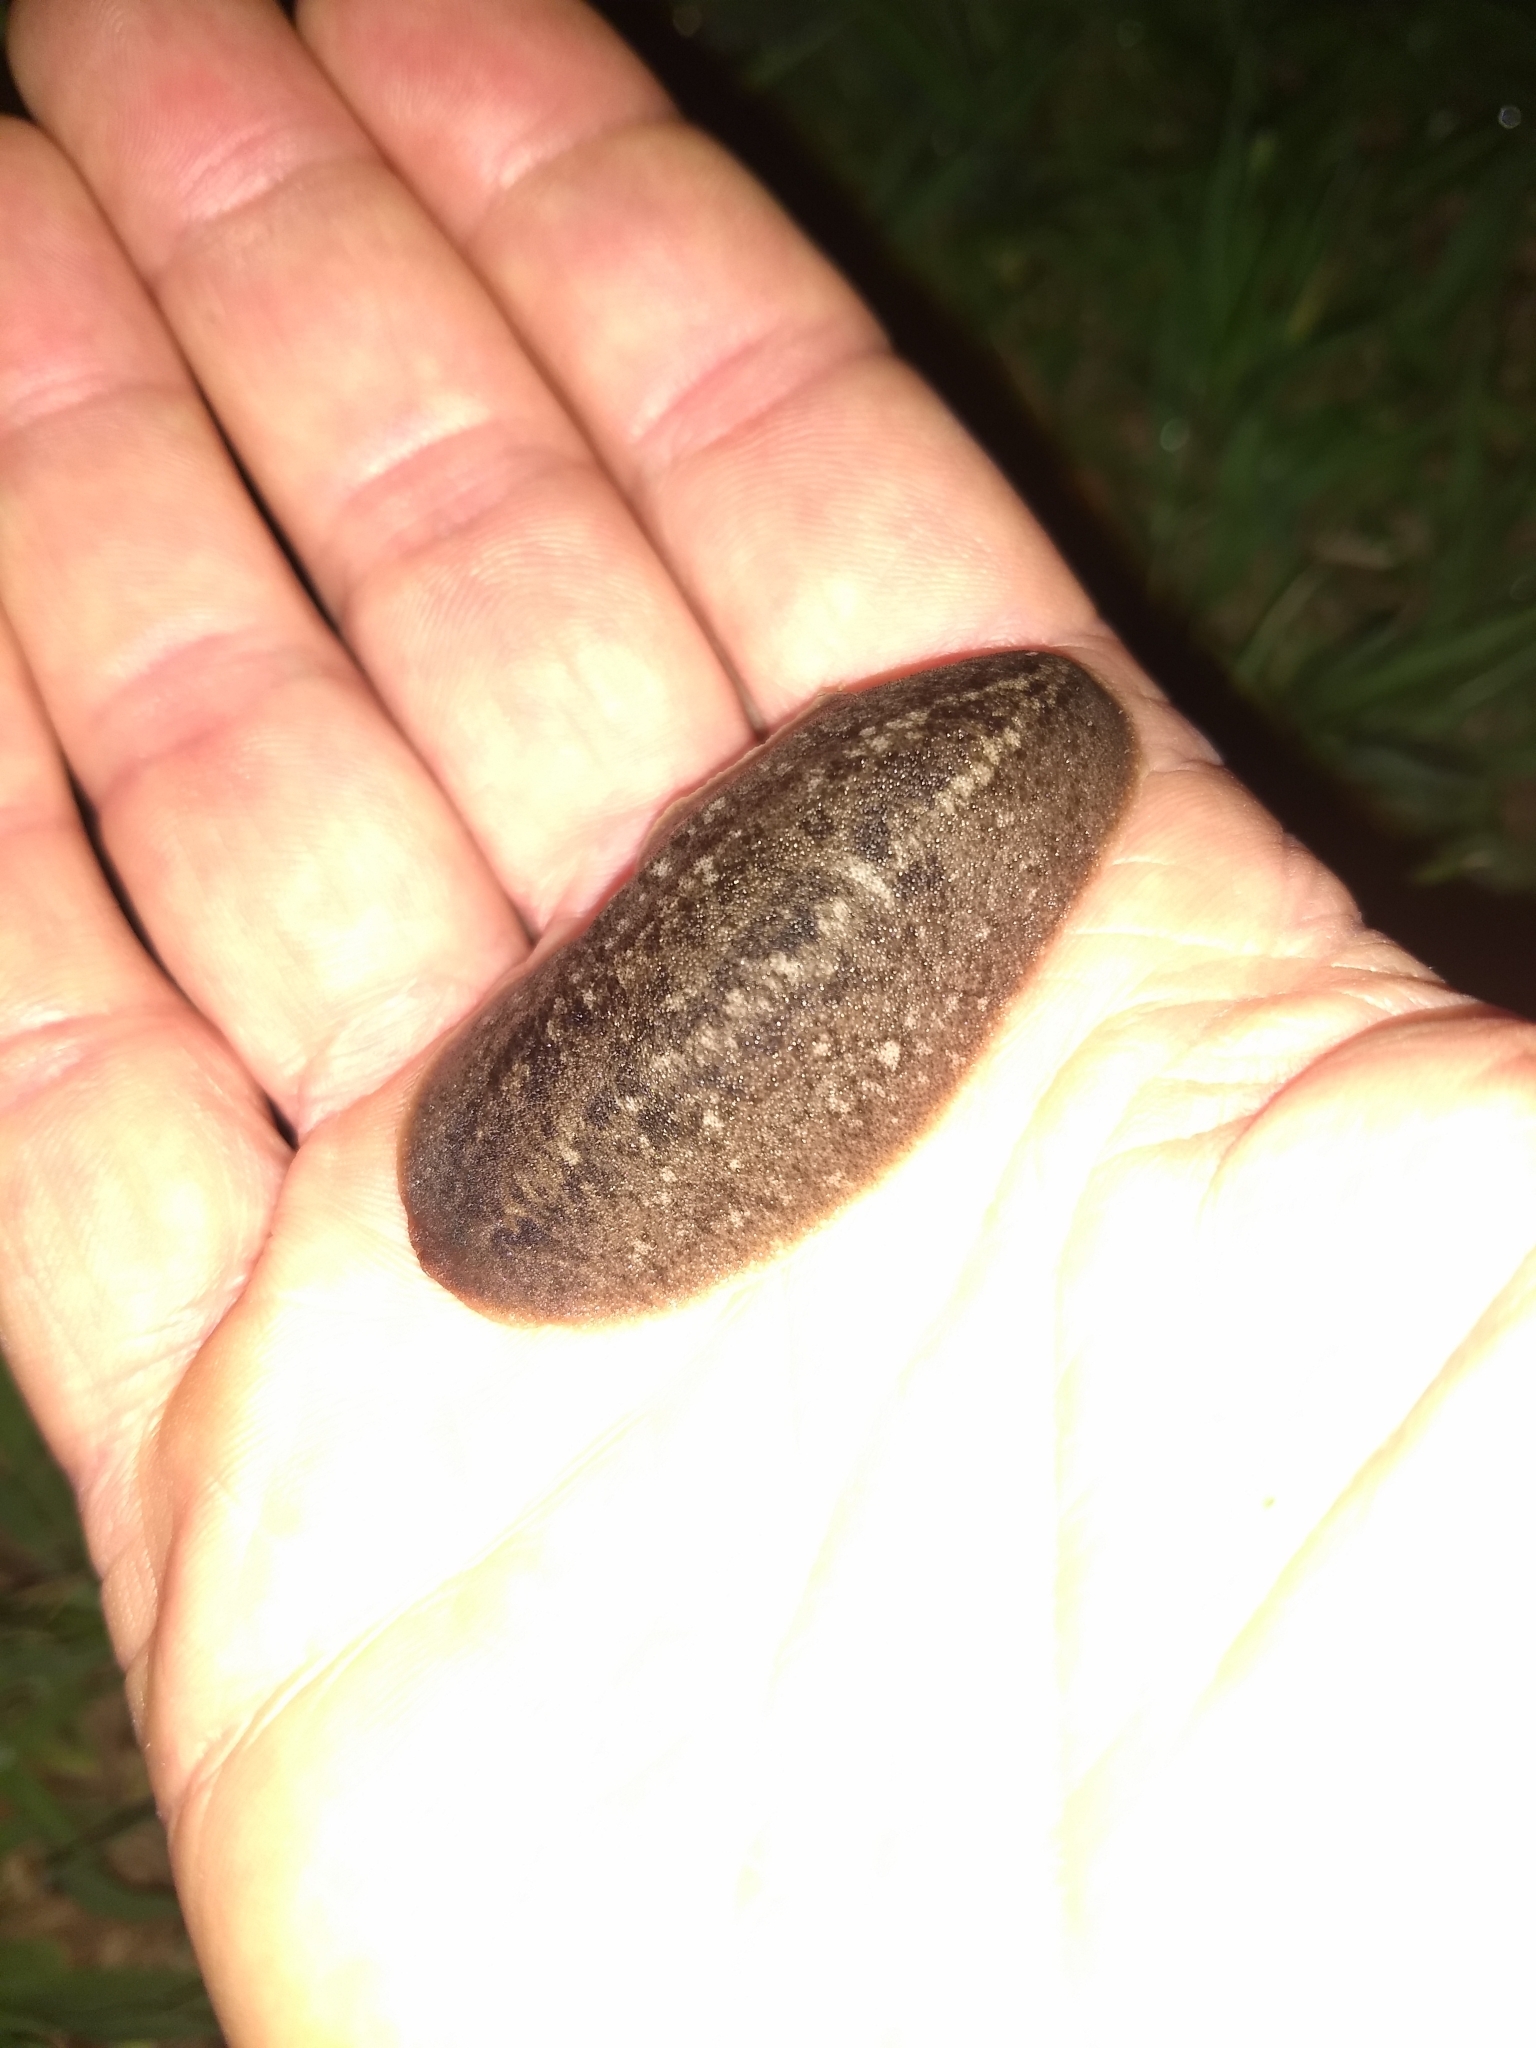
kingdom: Animalia
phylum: Mollusca
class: Gastropoda
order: Systellommatophora
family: Veronicellidae
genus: Phyllocaulis
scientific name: Phyllocaulis soleiformis
